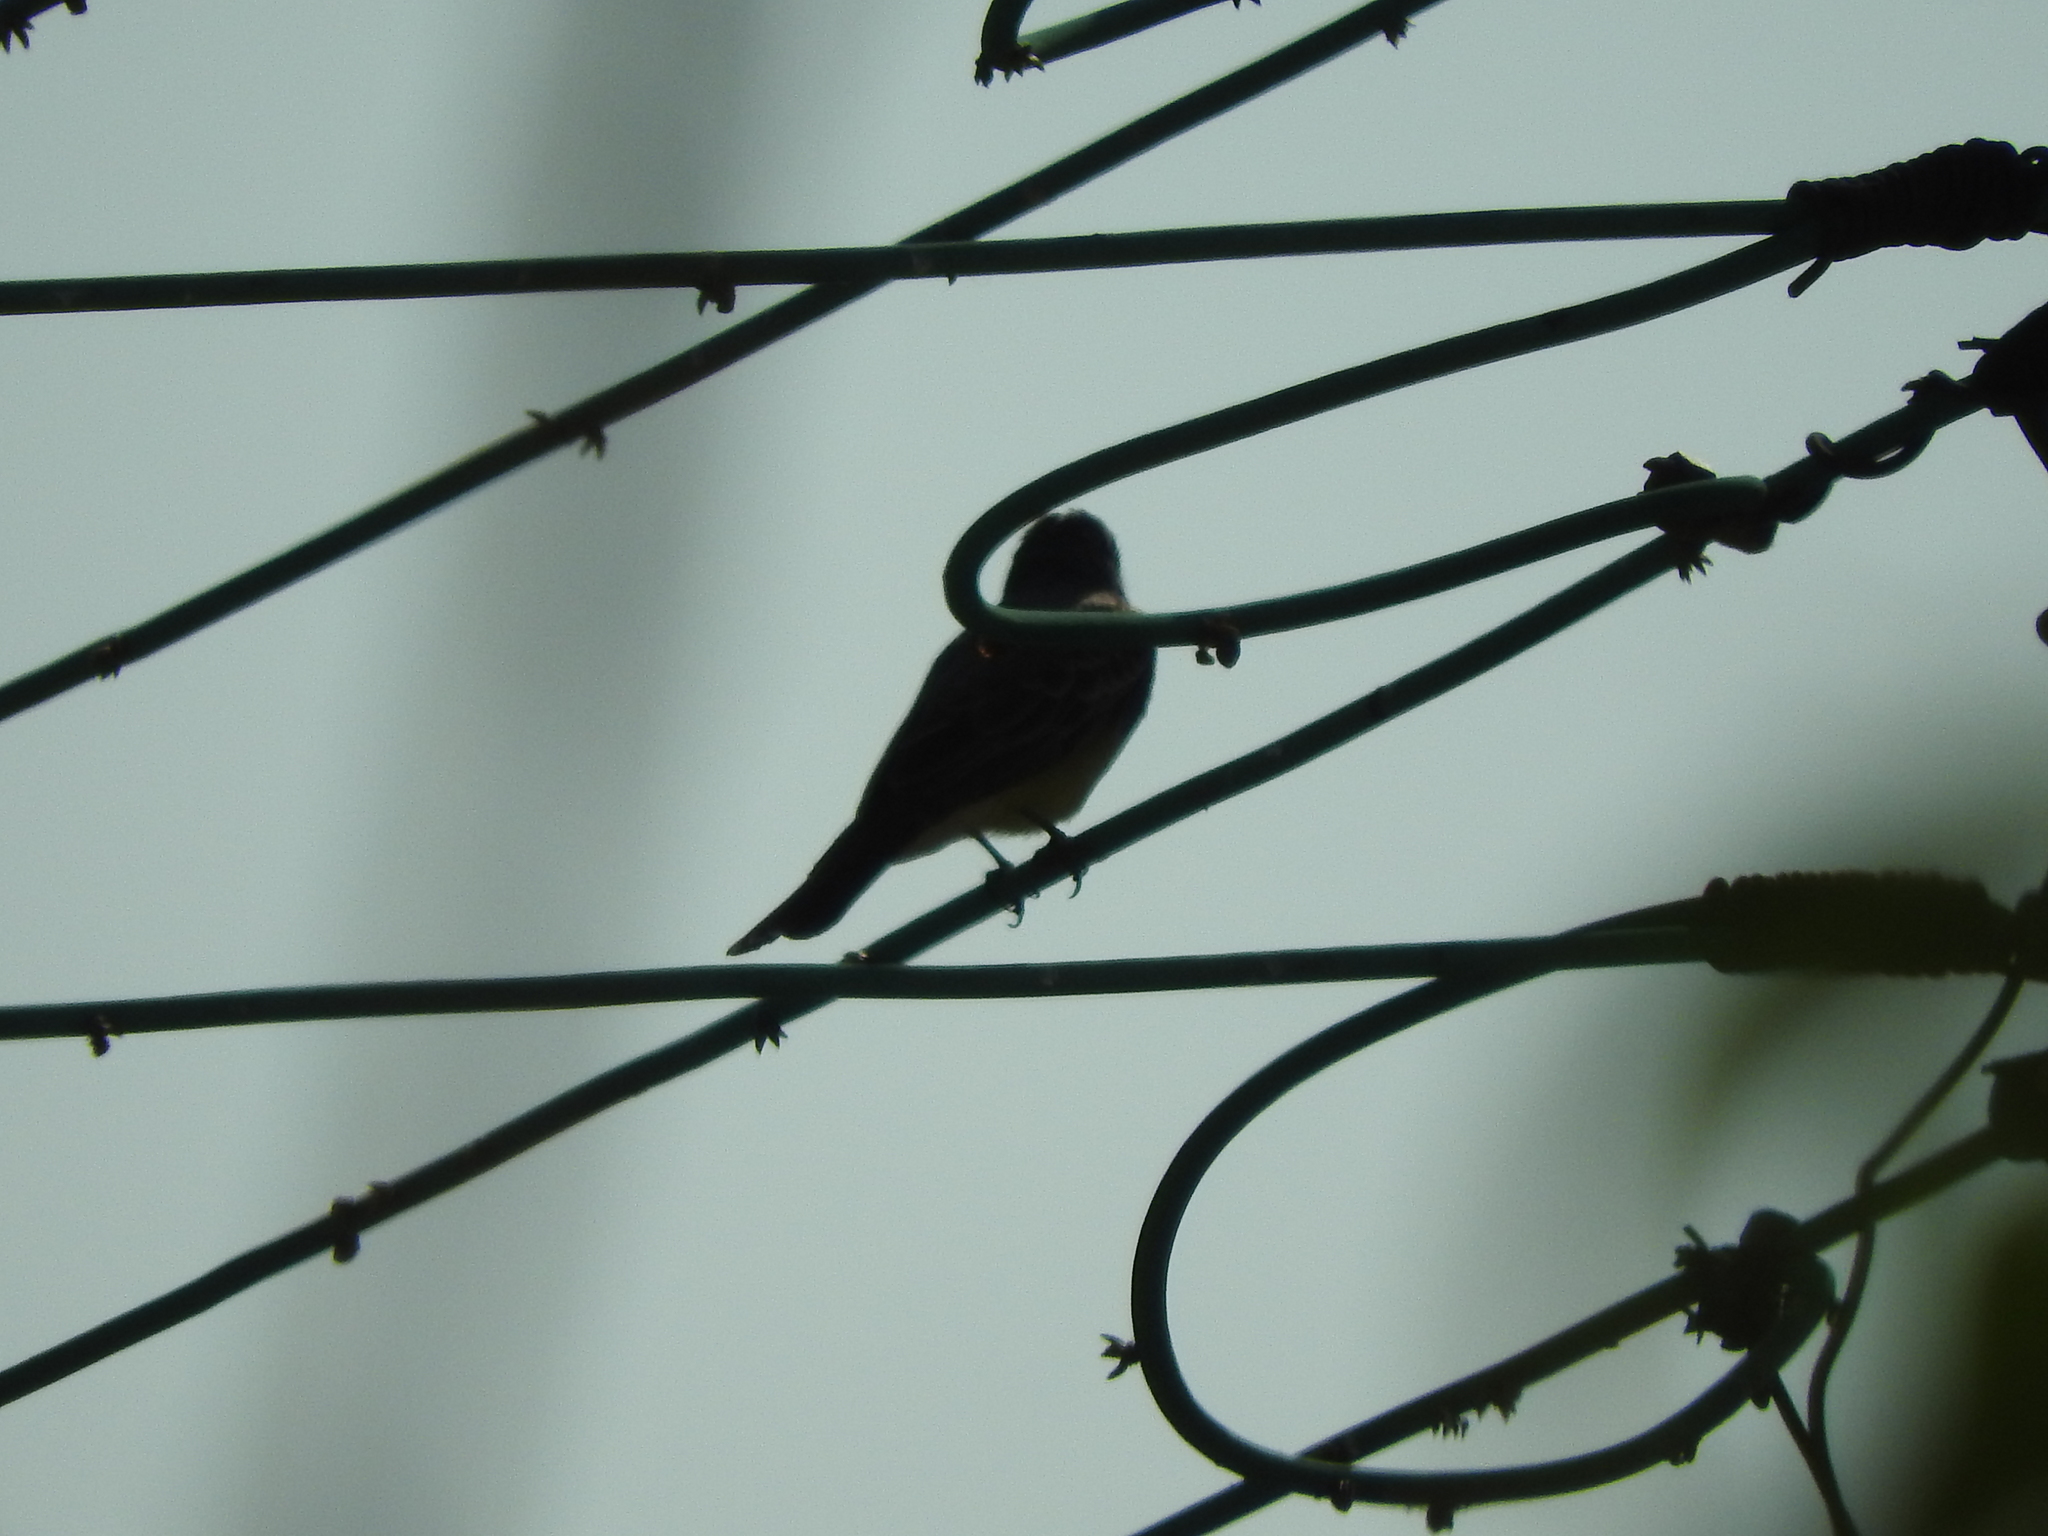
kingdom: Animalia
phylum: Chordata
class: Aves
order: Passeriformes
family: Fringillidae
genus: Haemorhous
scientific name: Haemorhous mexicanus
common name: House finch
